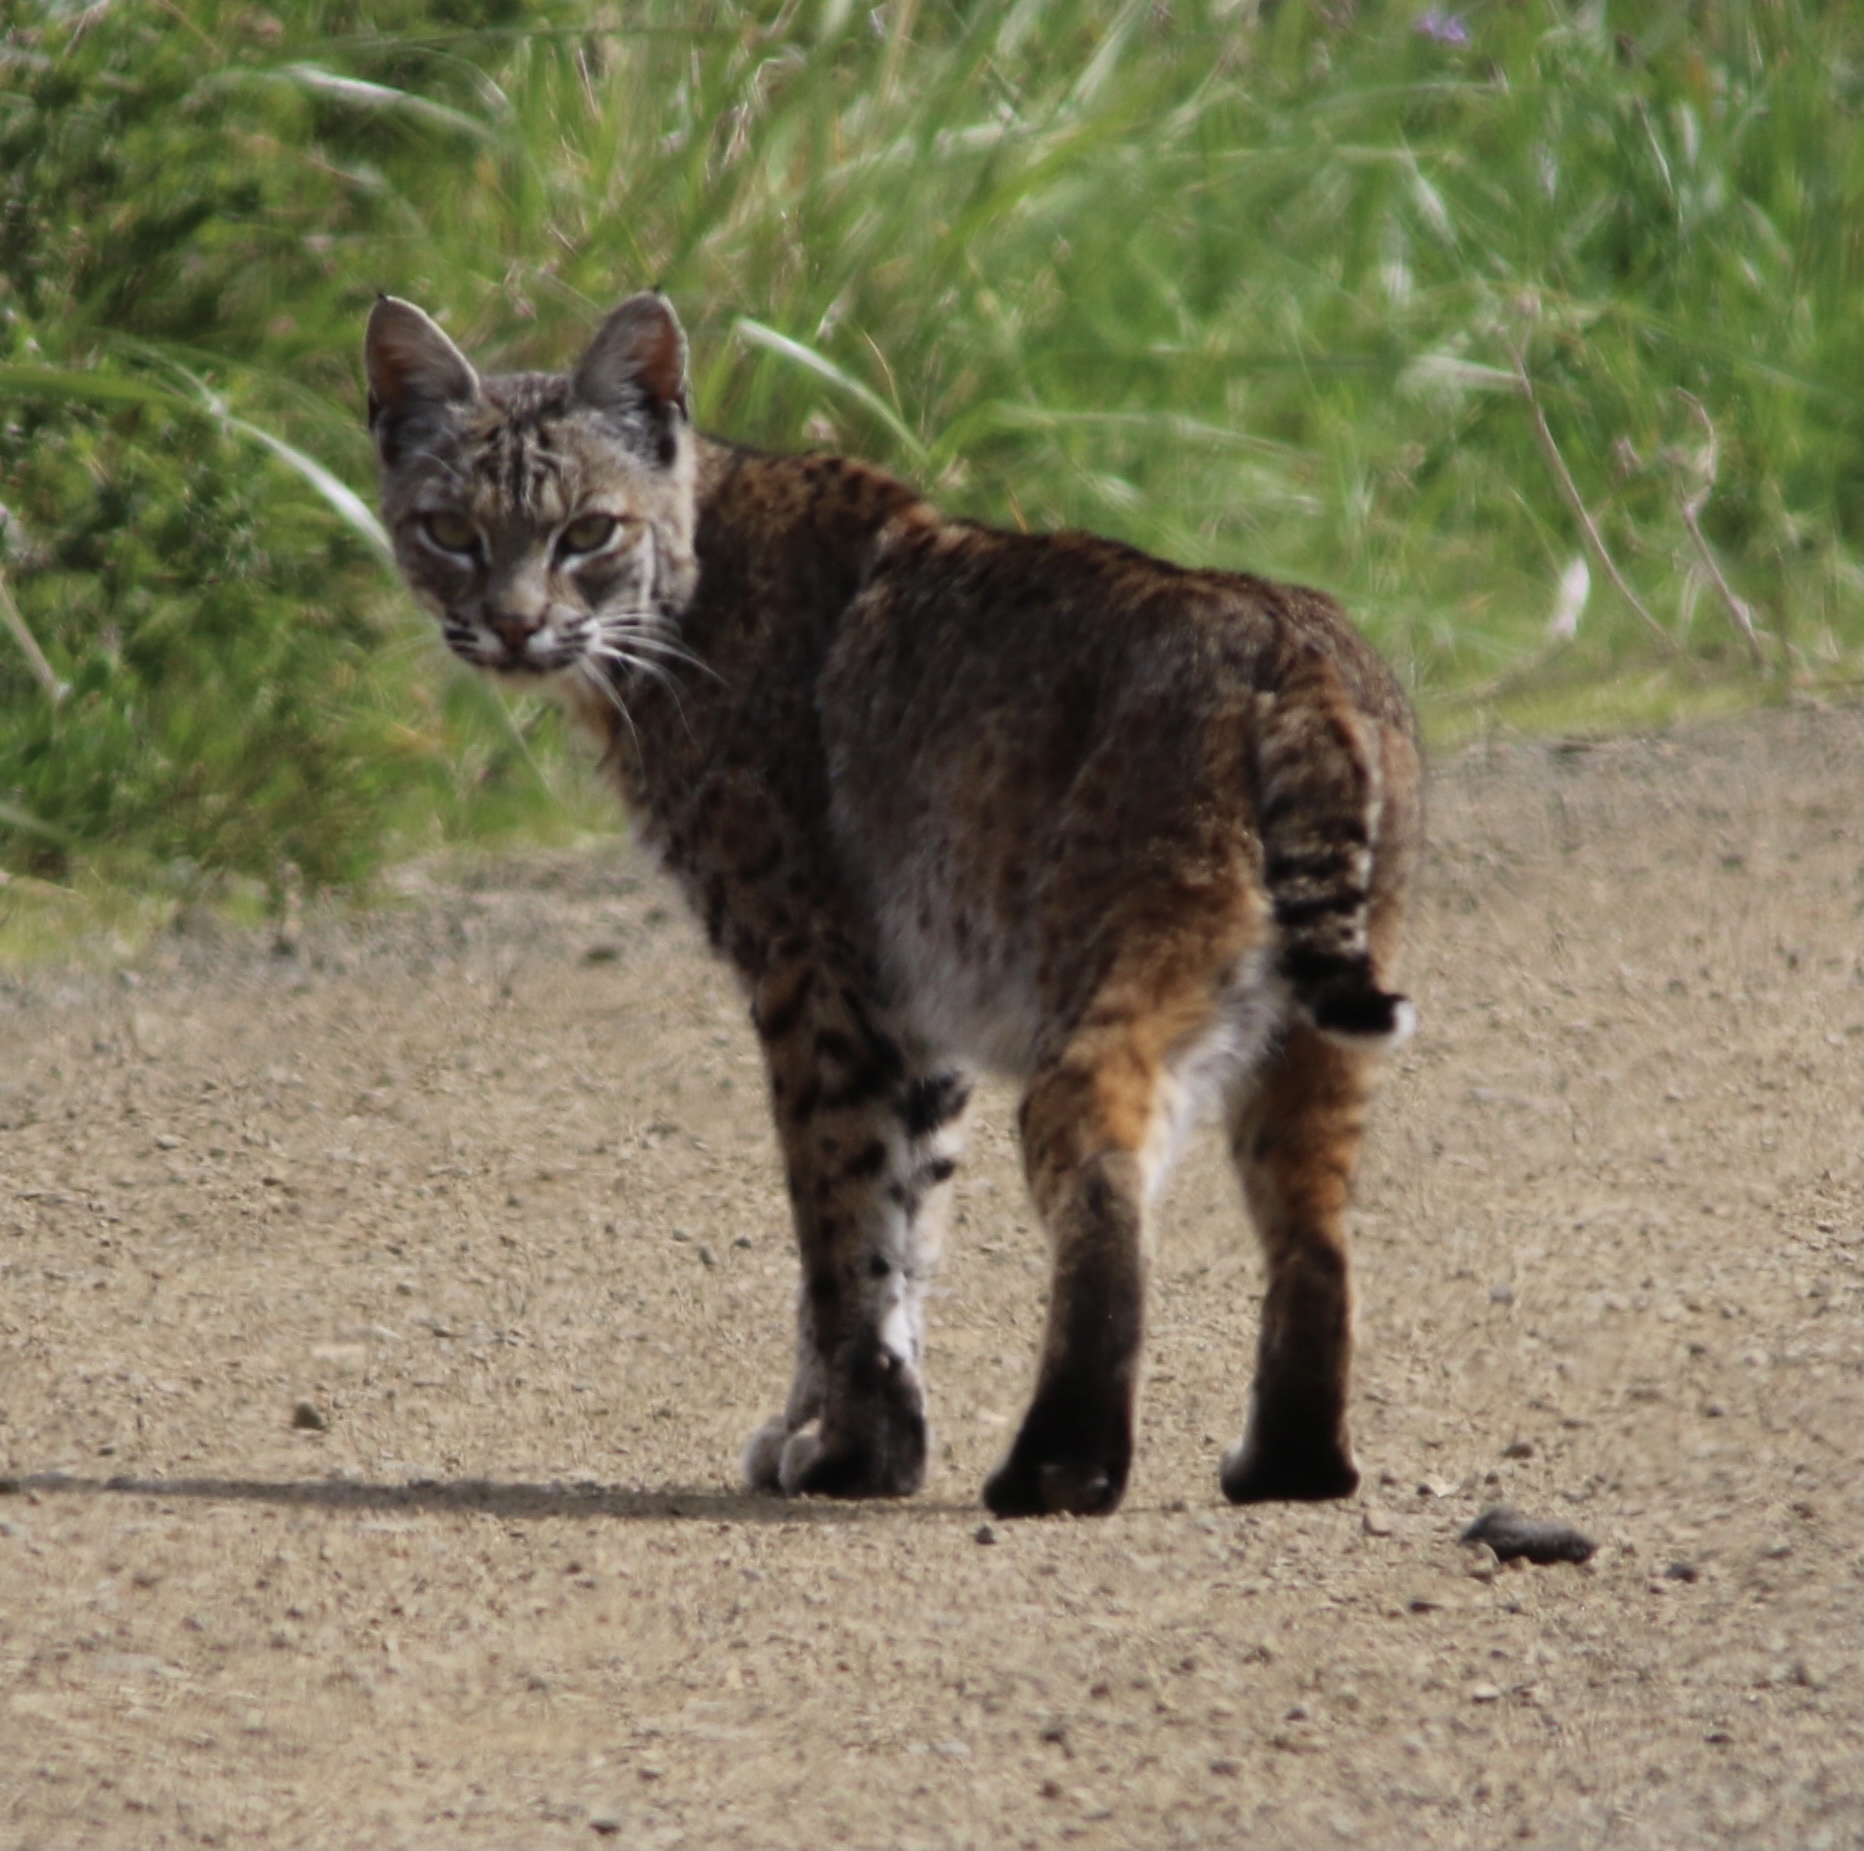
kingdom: Animalia
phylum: Chordata
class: Mammalia
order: Carnivora
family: Felidae
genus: Lynx
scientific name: Lynx rufus
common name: Bobcat
